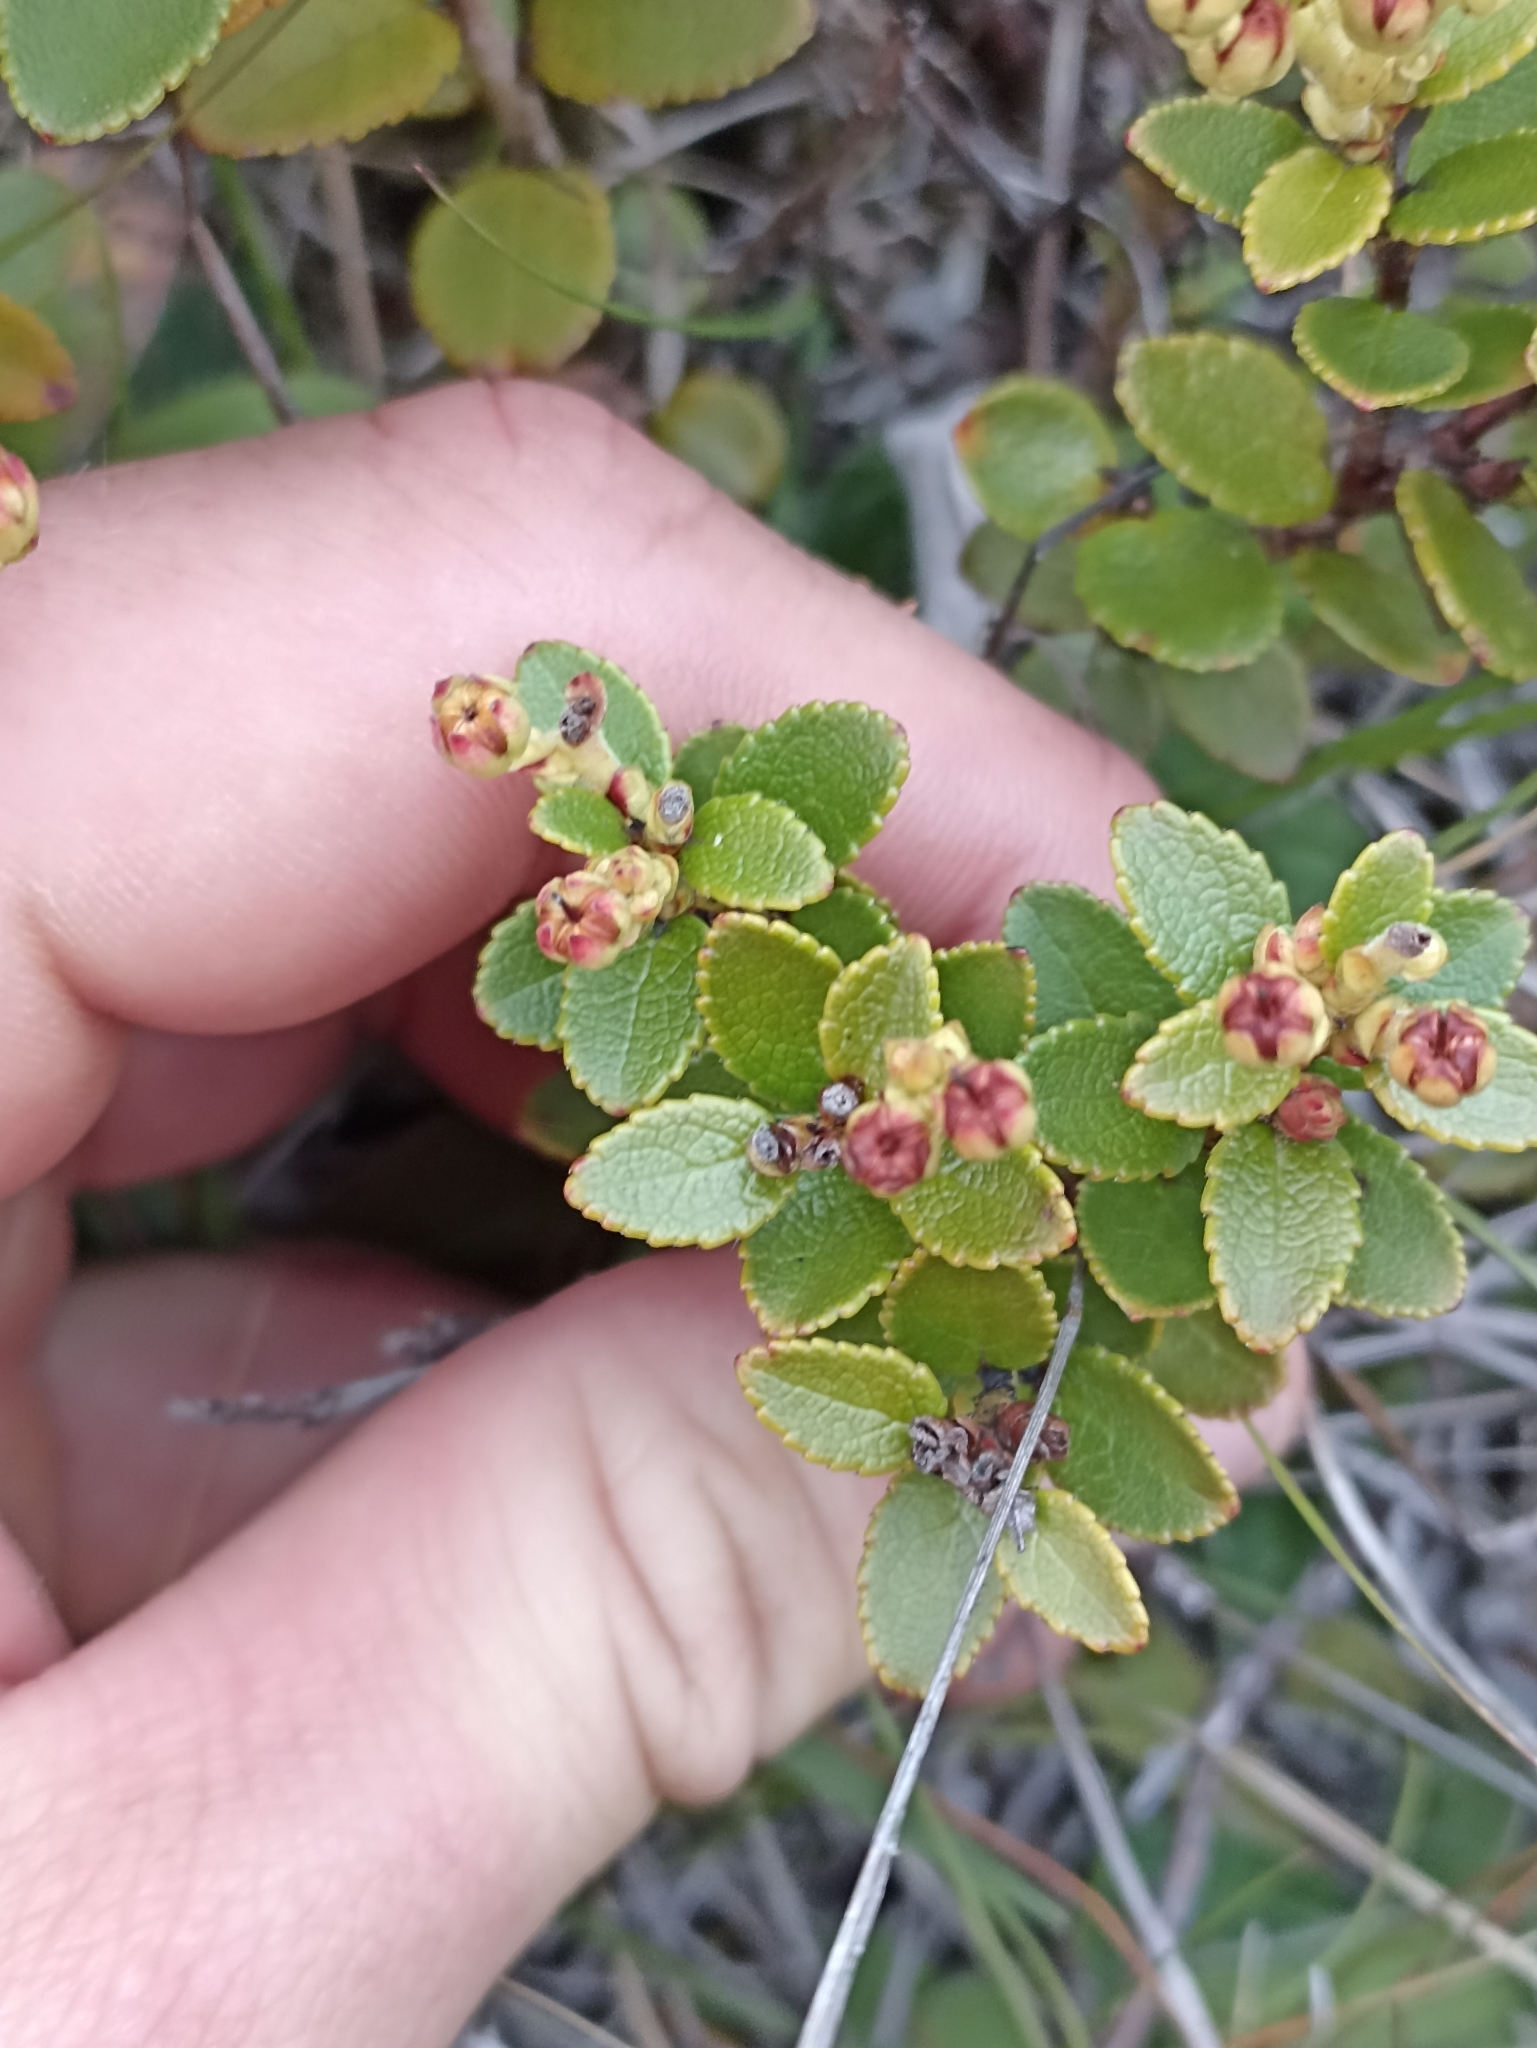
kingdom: Plantae
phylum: Tracheophyta
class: Magnoliopsida
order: Ericales
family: Ericaceae
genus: Gaultheria
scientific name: Gaultheria crassa
